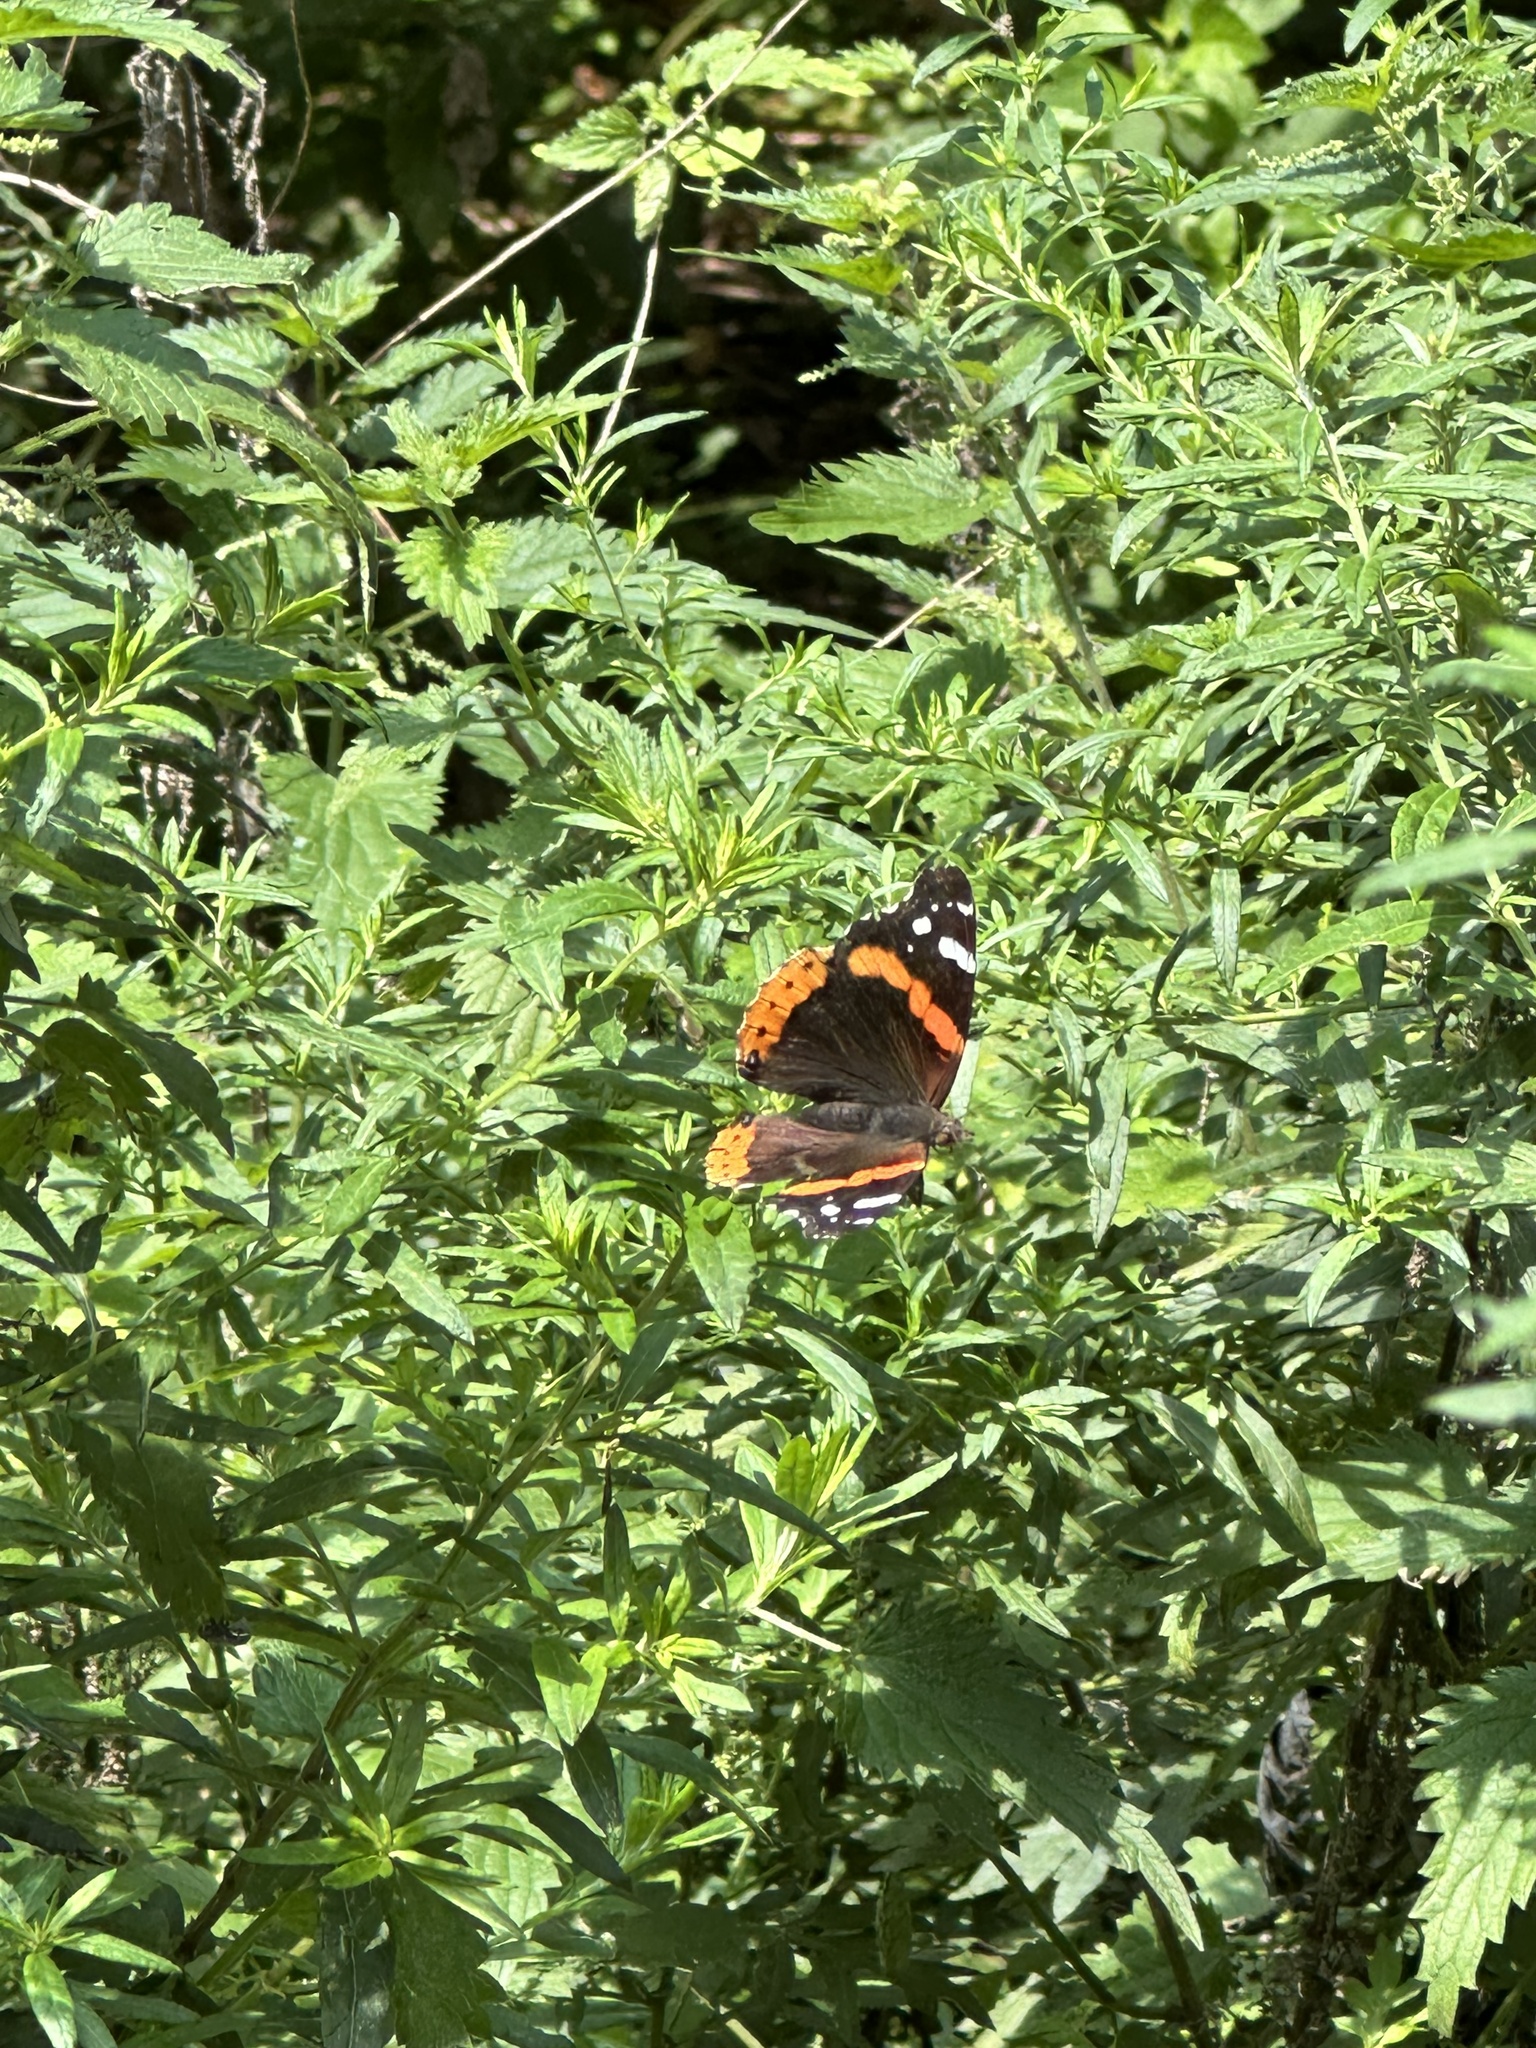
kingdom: Animalia
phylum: Arthropoda
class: Insecta
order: Lepidoptera
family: Nymphalidae
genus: Vanessa
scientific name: Vanessa atalanta
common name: Red admiral
